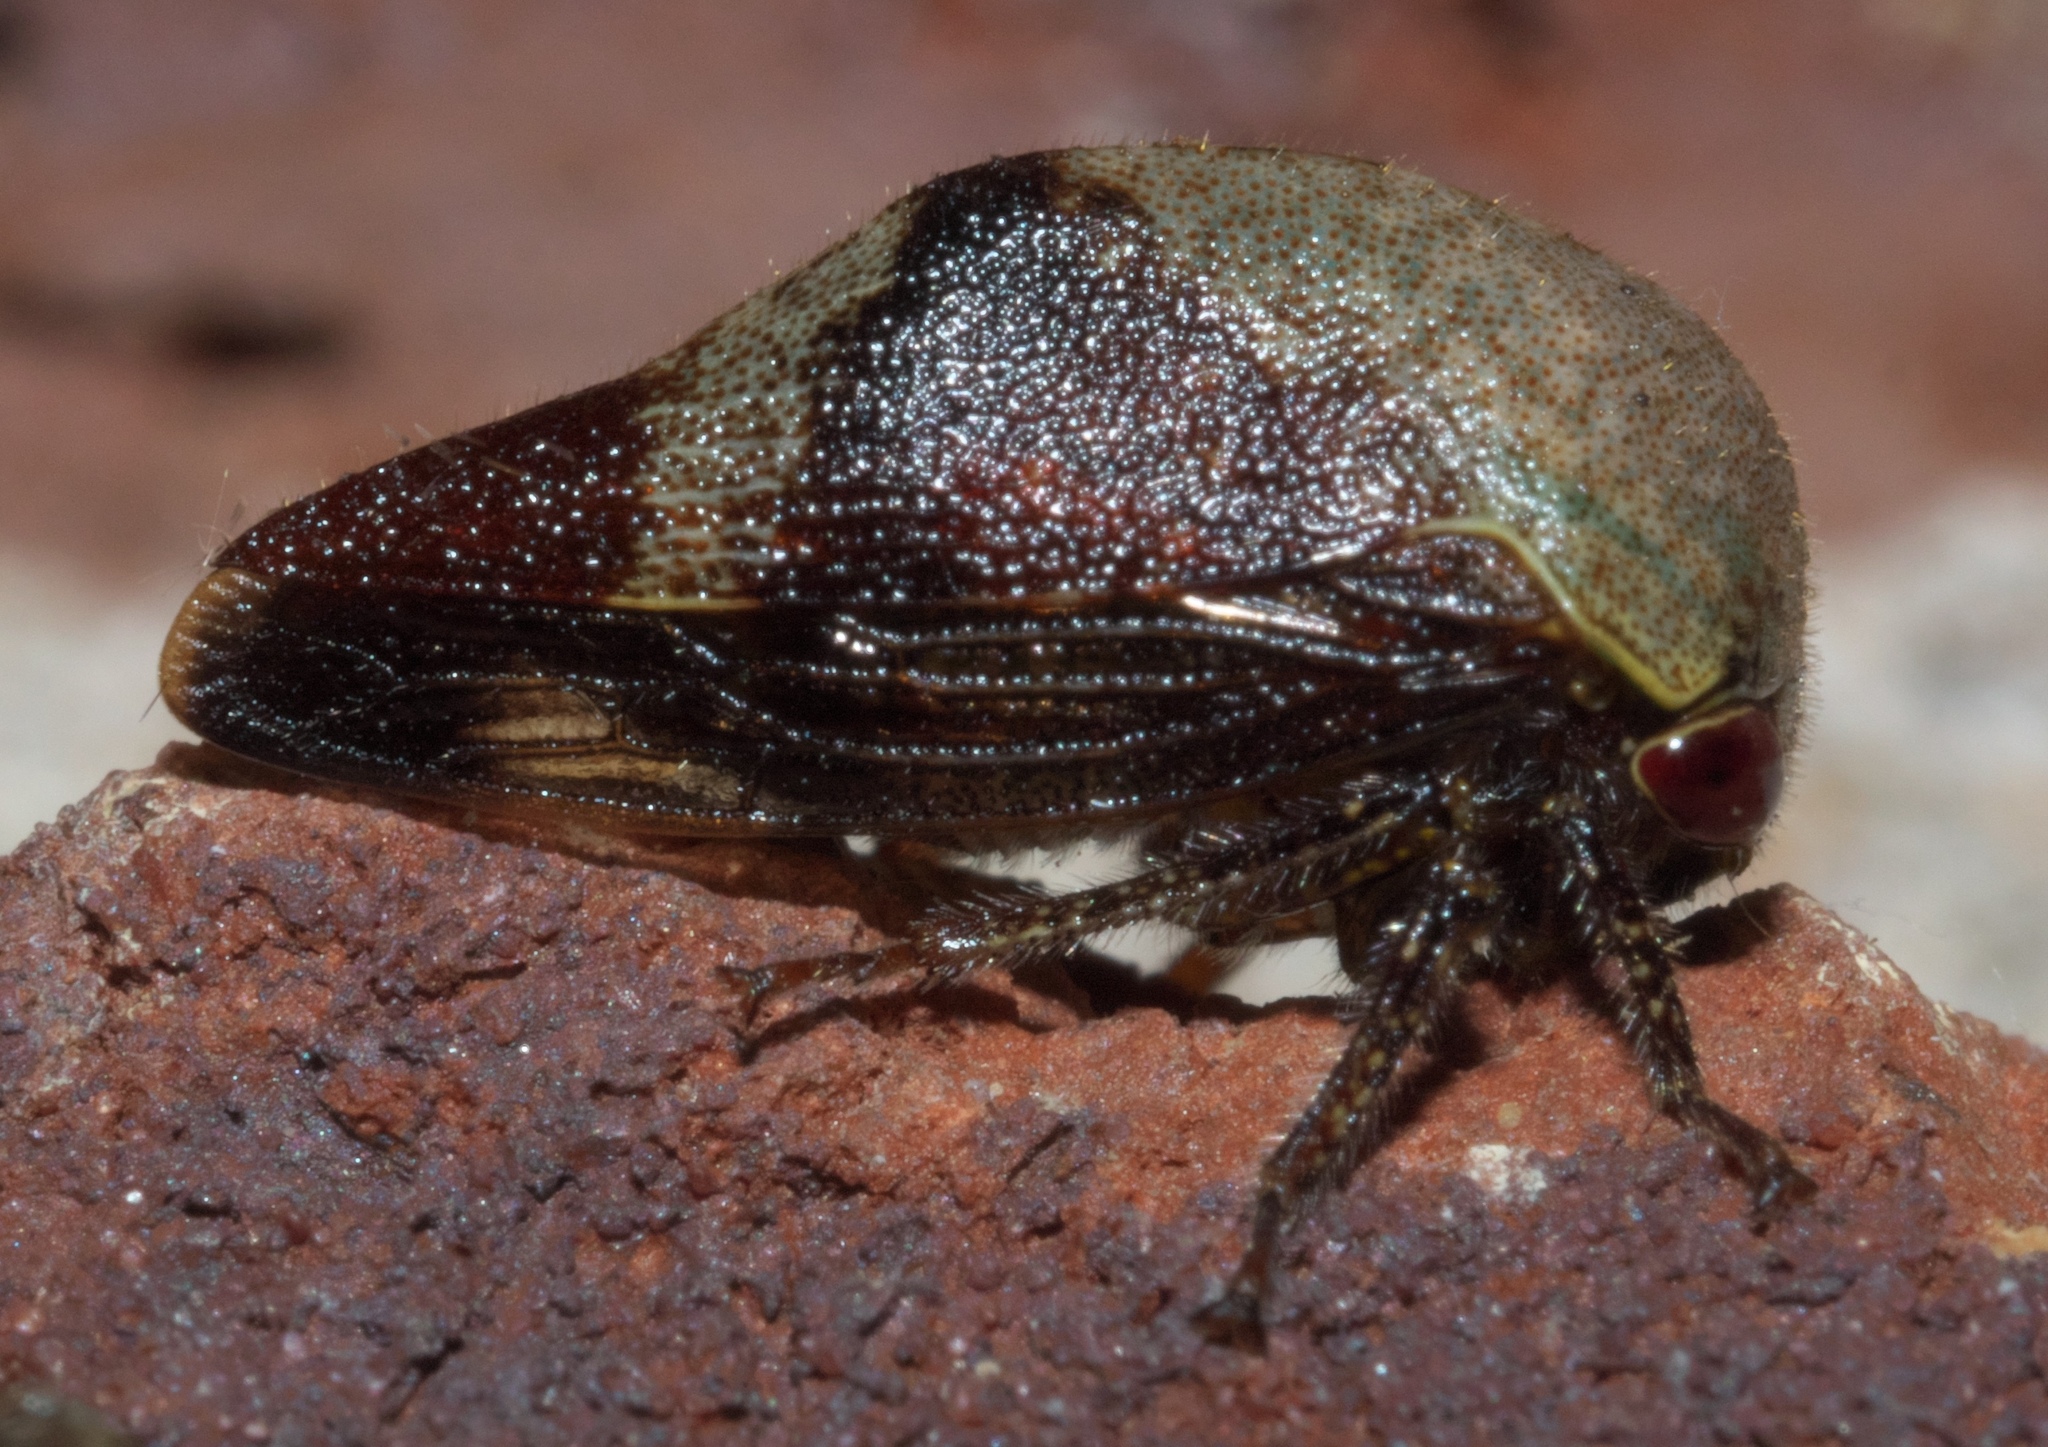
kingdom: Animalia
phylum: Arthropoda
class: Insecta
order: Hemiptera
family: Membracidae
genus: Carynota
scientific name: Carynota mera
